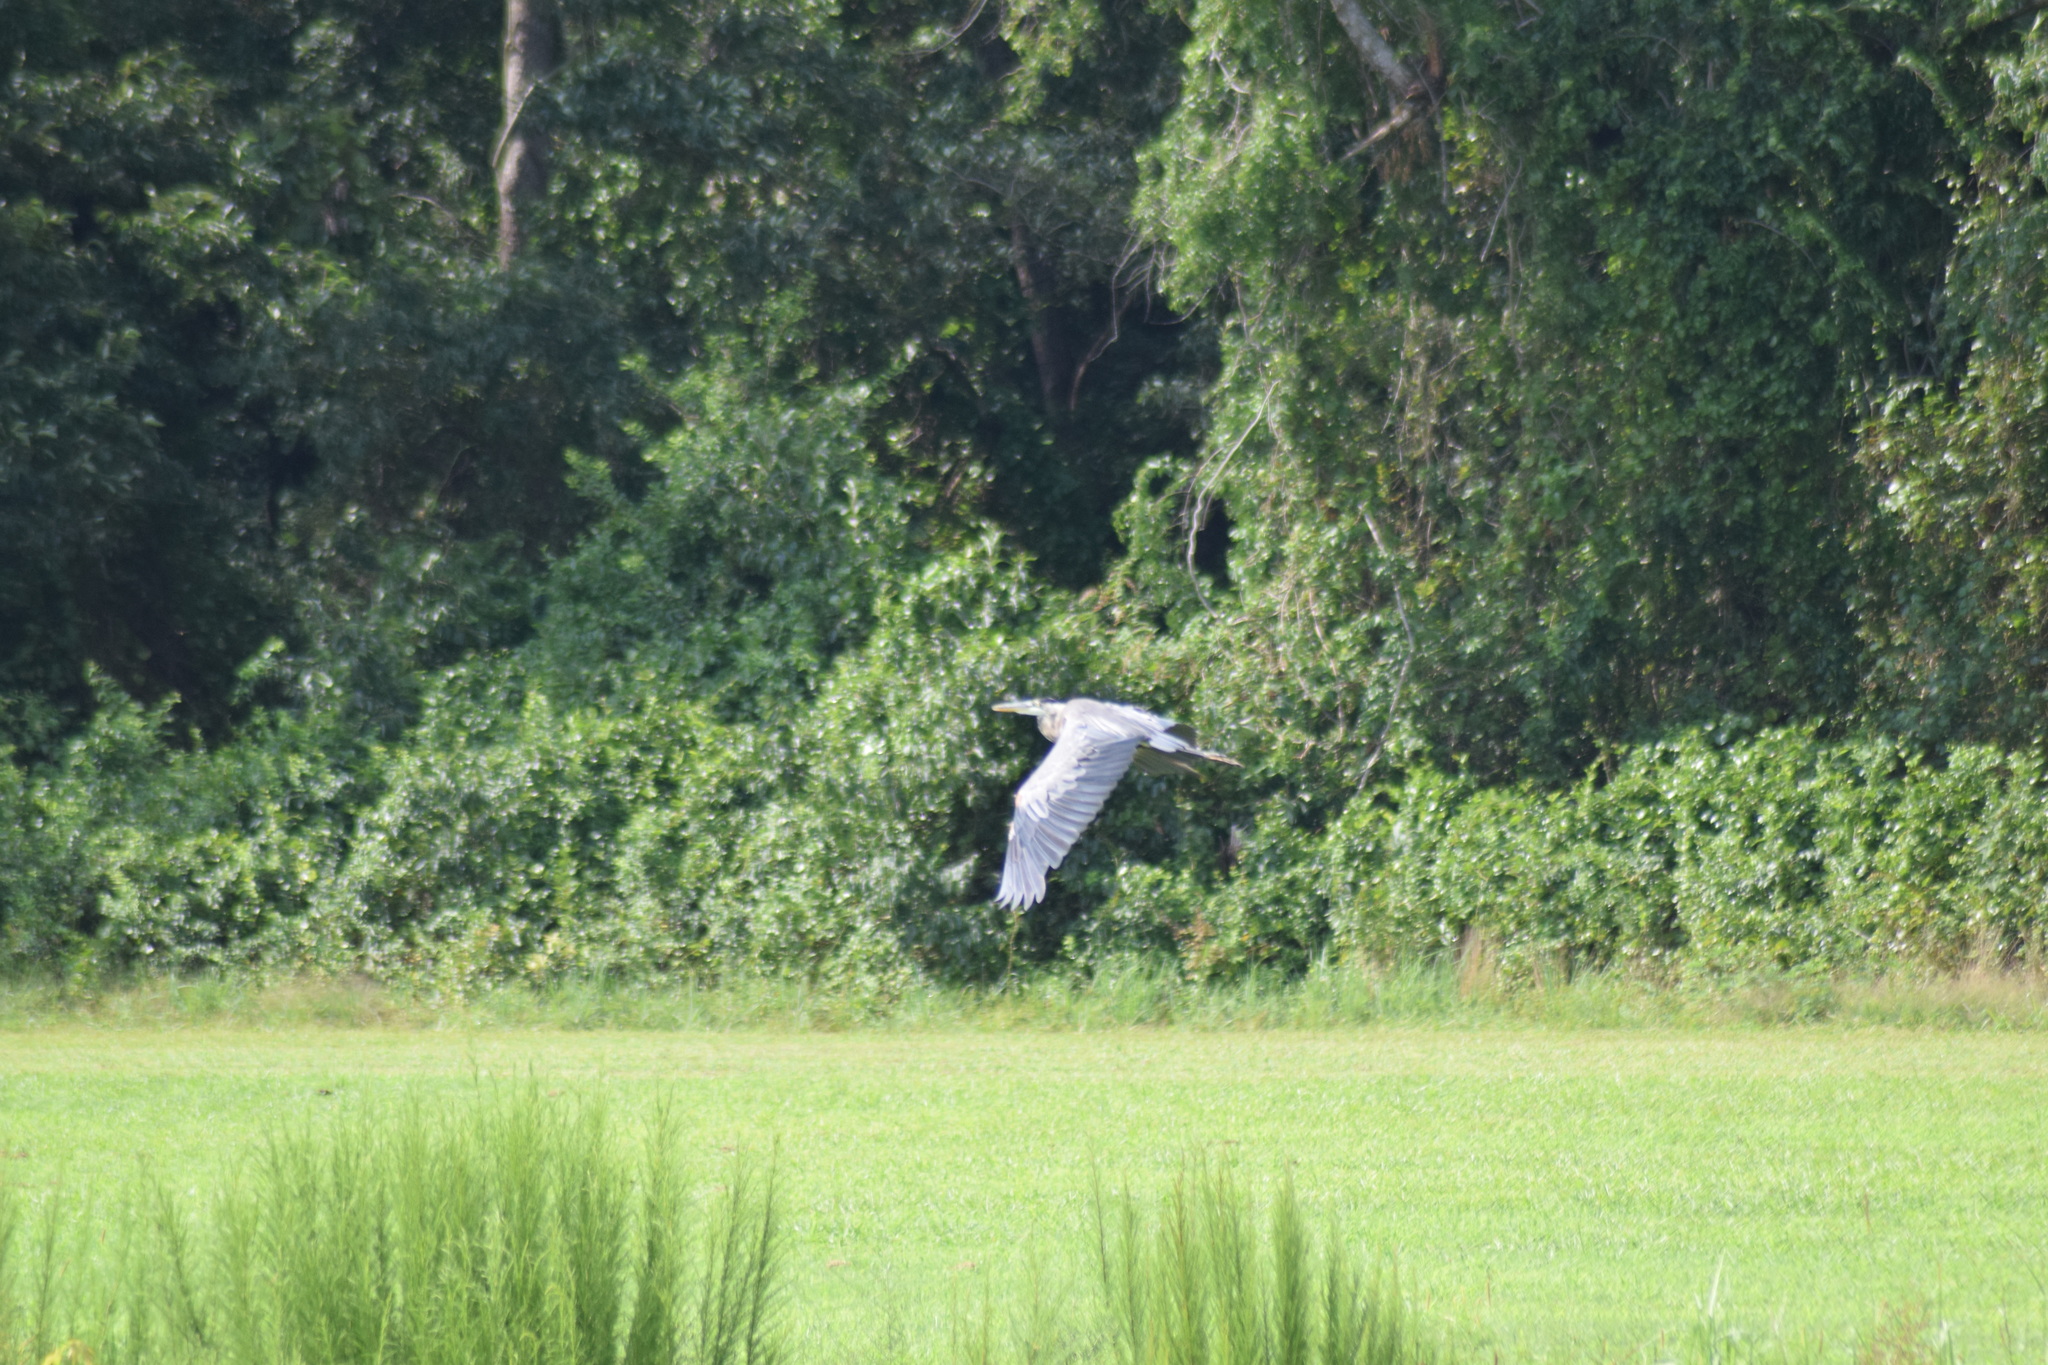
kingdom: Animalia
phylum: Chordata
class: Aves
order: Pelecaniformes
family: Ardeidae
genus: Ardea
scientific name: Ardea herodias
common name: Great blue heron
